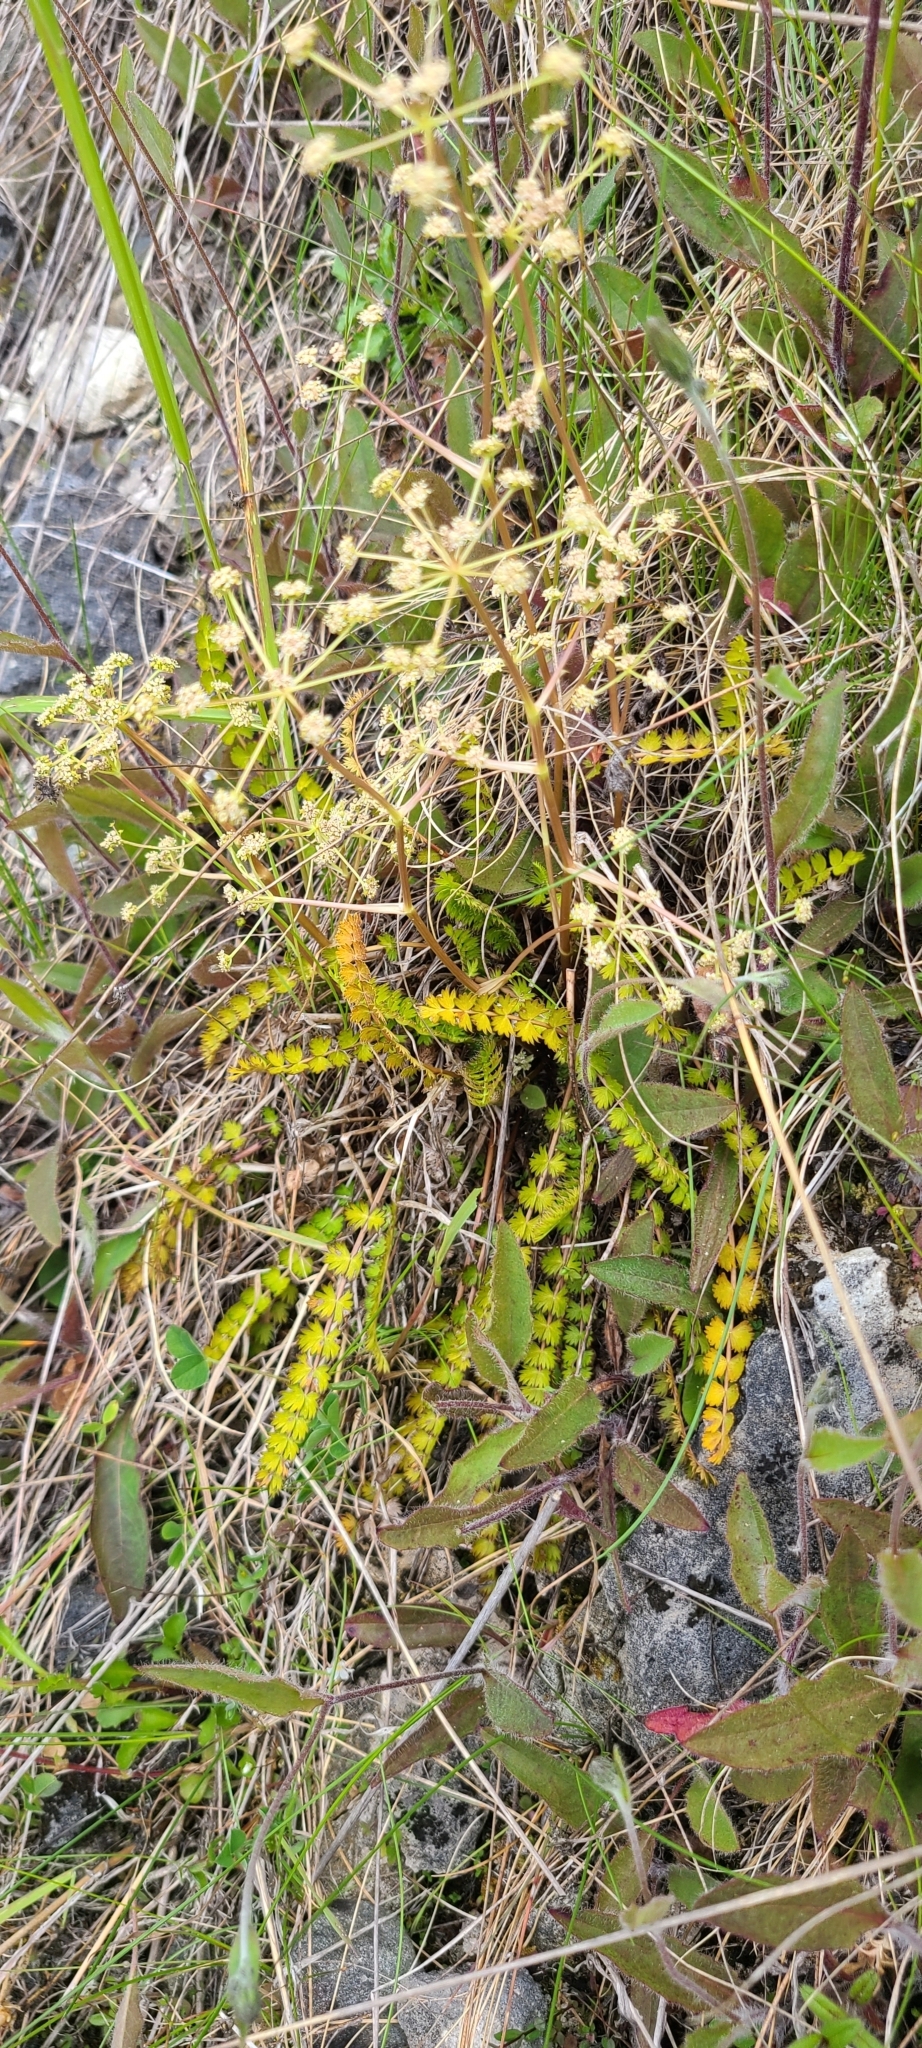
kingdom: Plantae
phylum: Tracheophyta
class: Magnoliopsida
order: Apiales
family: Apiaceae
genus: Anisotome
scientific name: Anisotome aromatica
